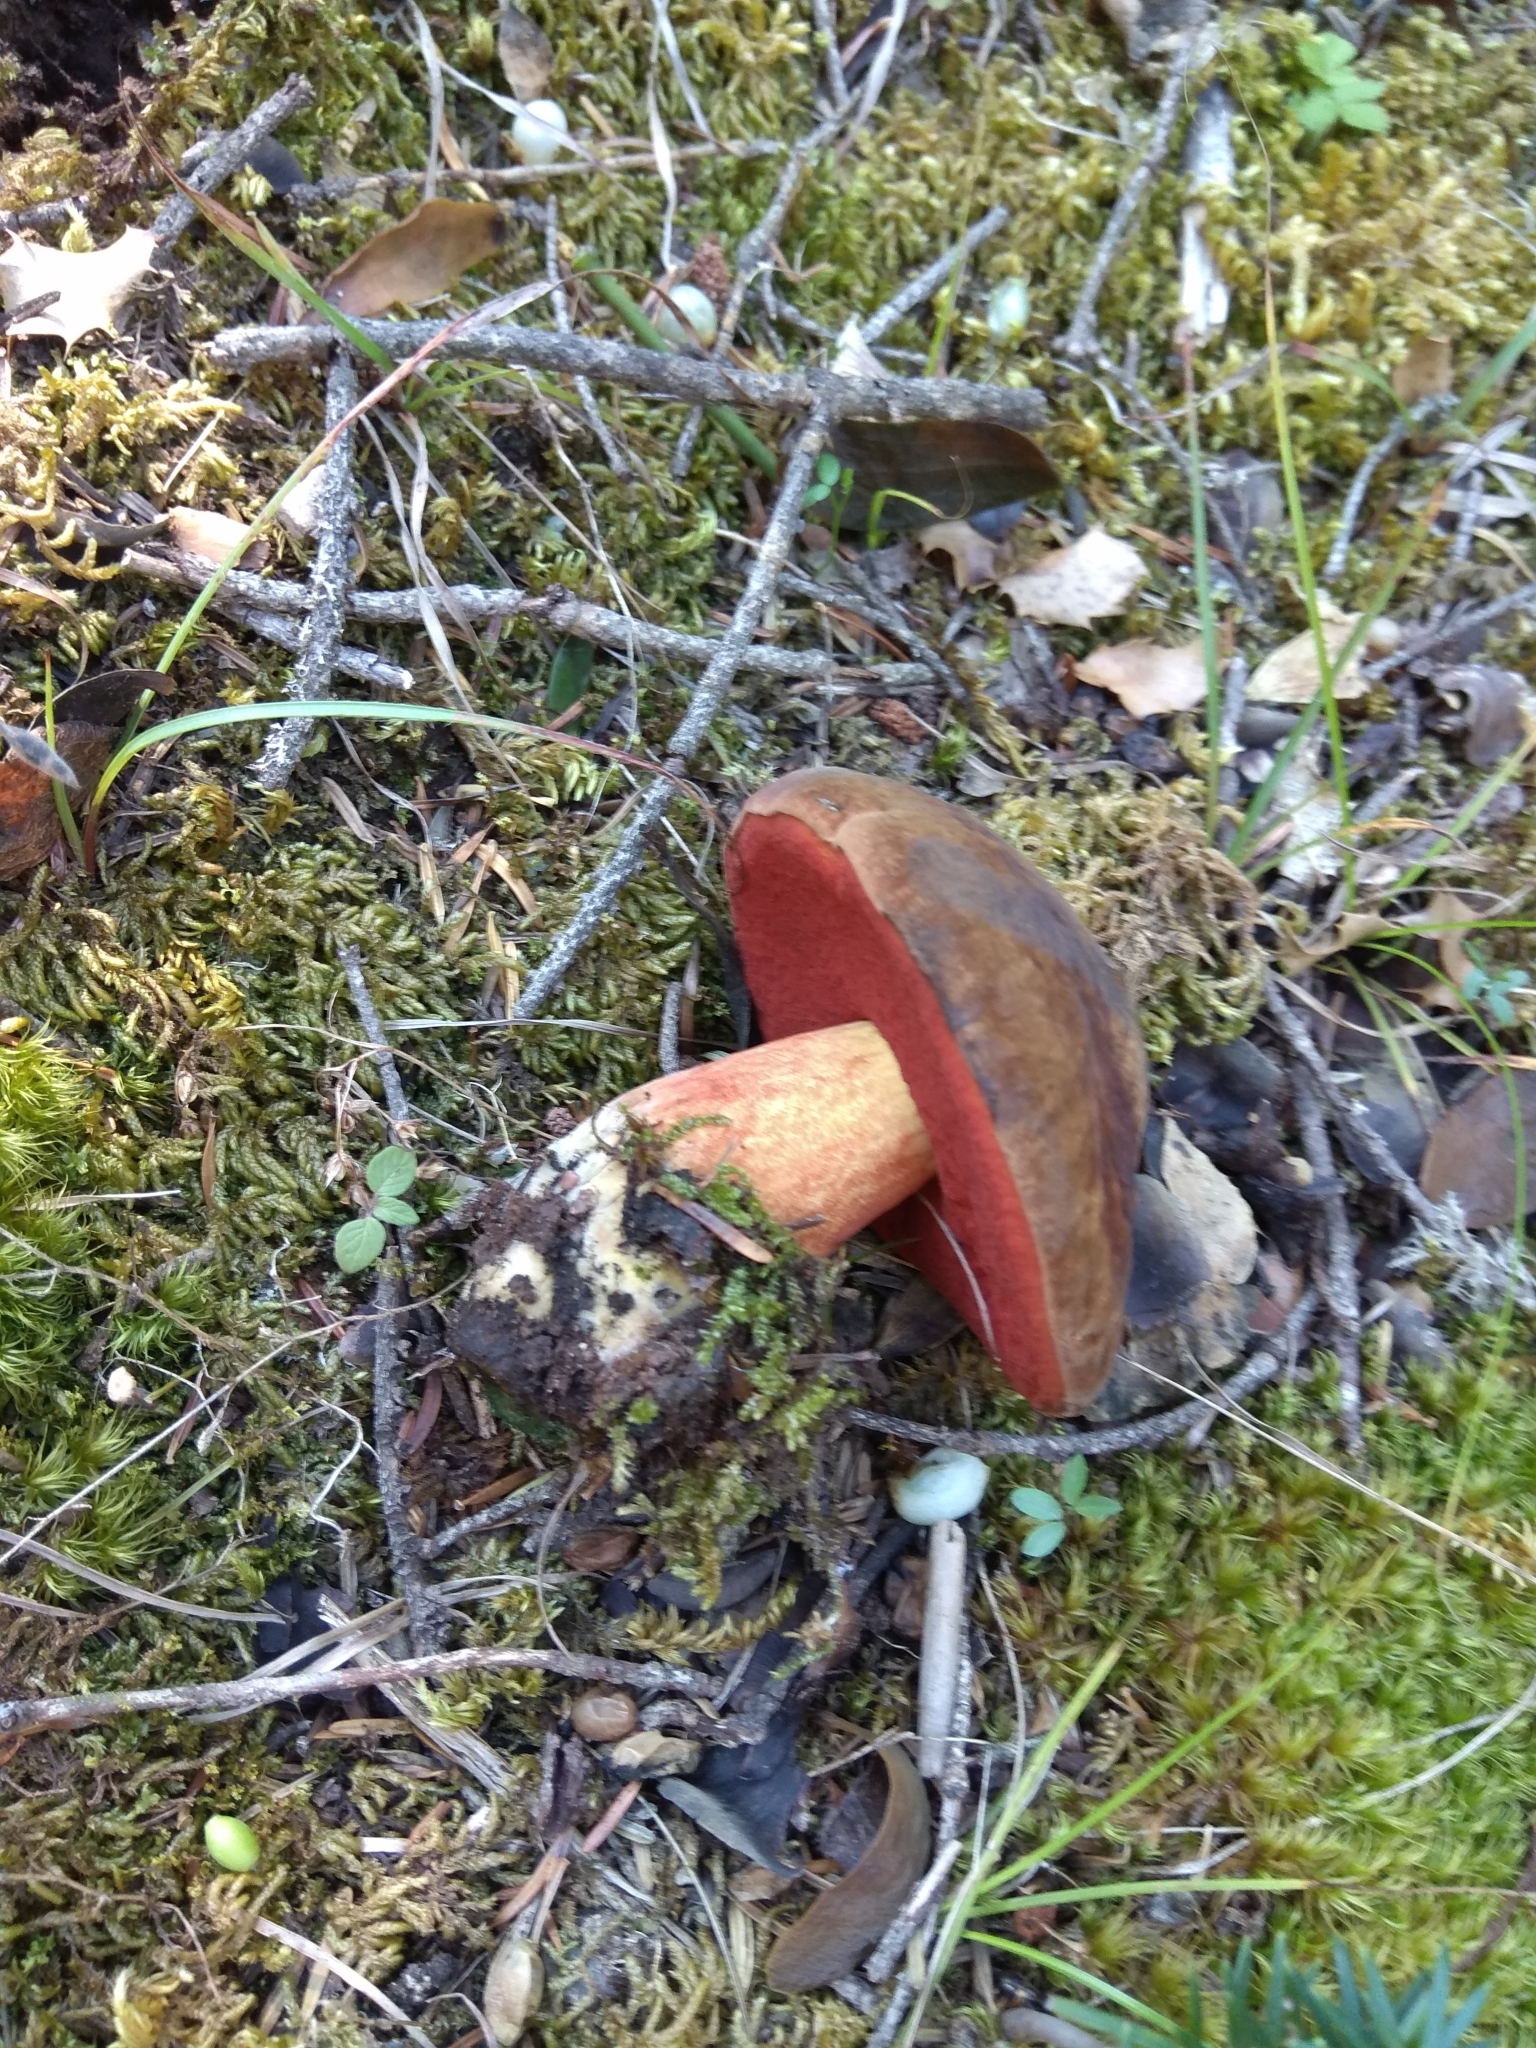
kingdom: Fungi
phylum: Basidiomycota
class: Agaricomycetes
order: Boletales
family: Boletaceae
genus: Neoboletus
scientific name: Neoboletus erythropus
